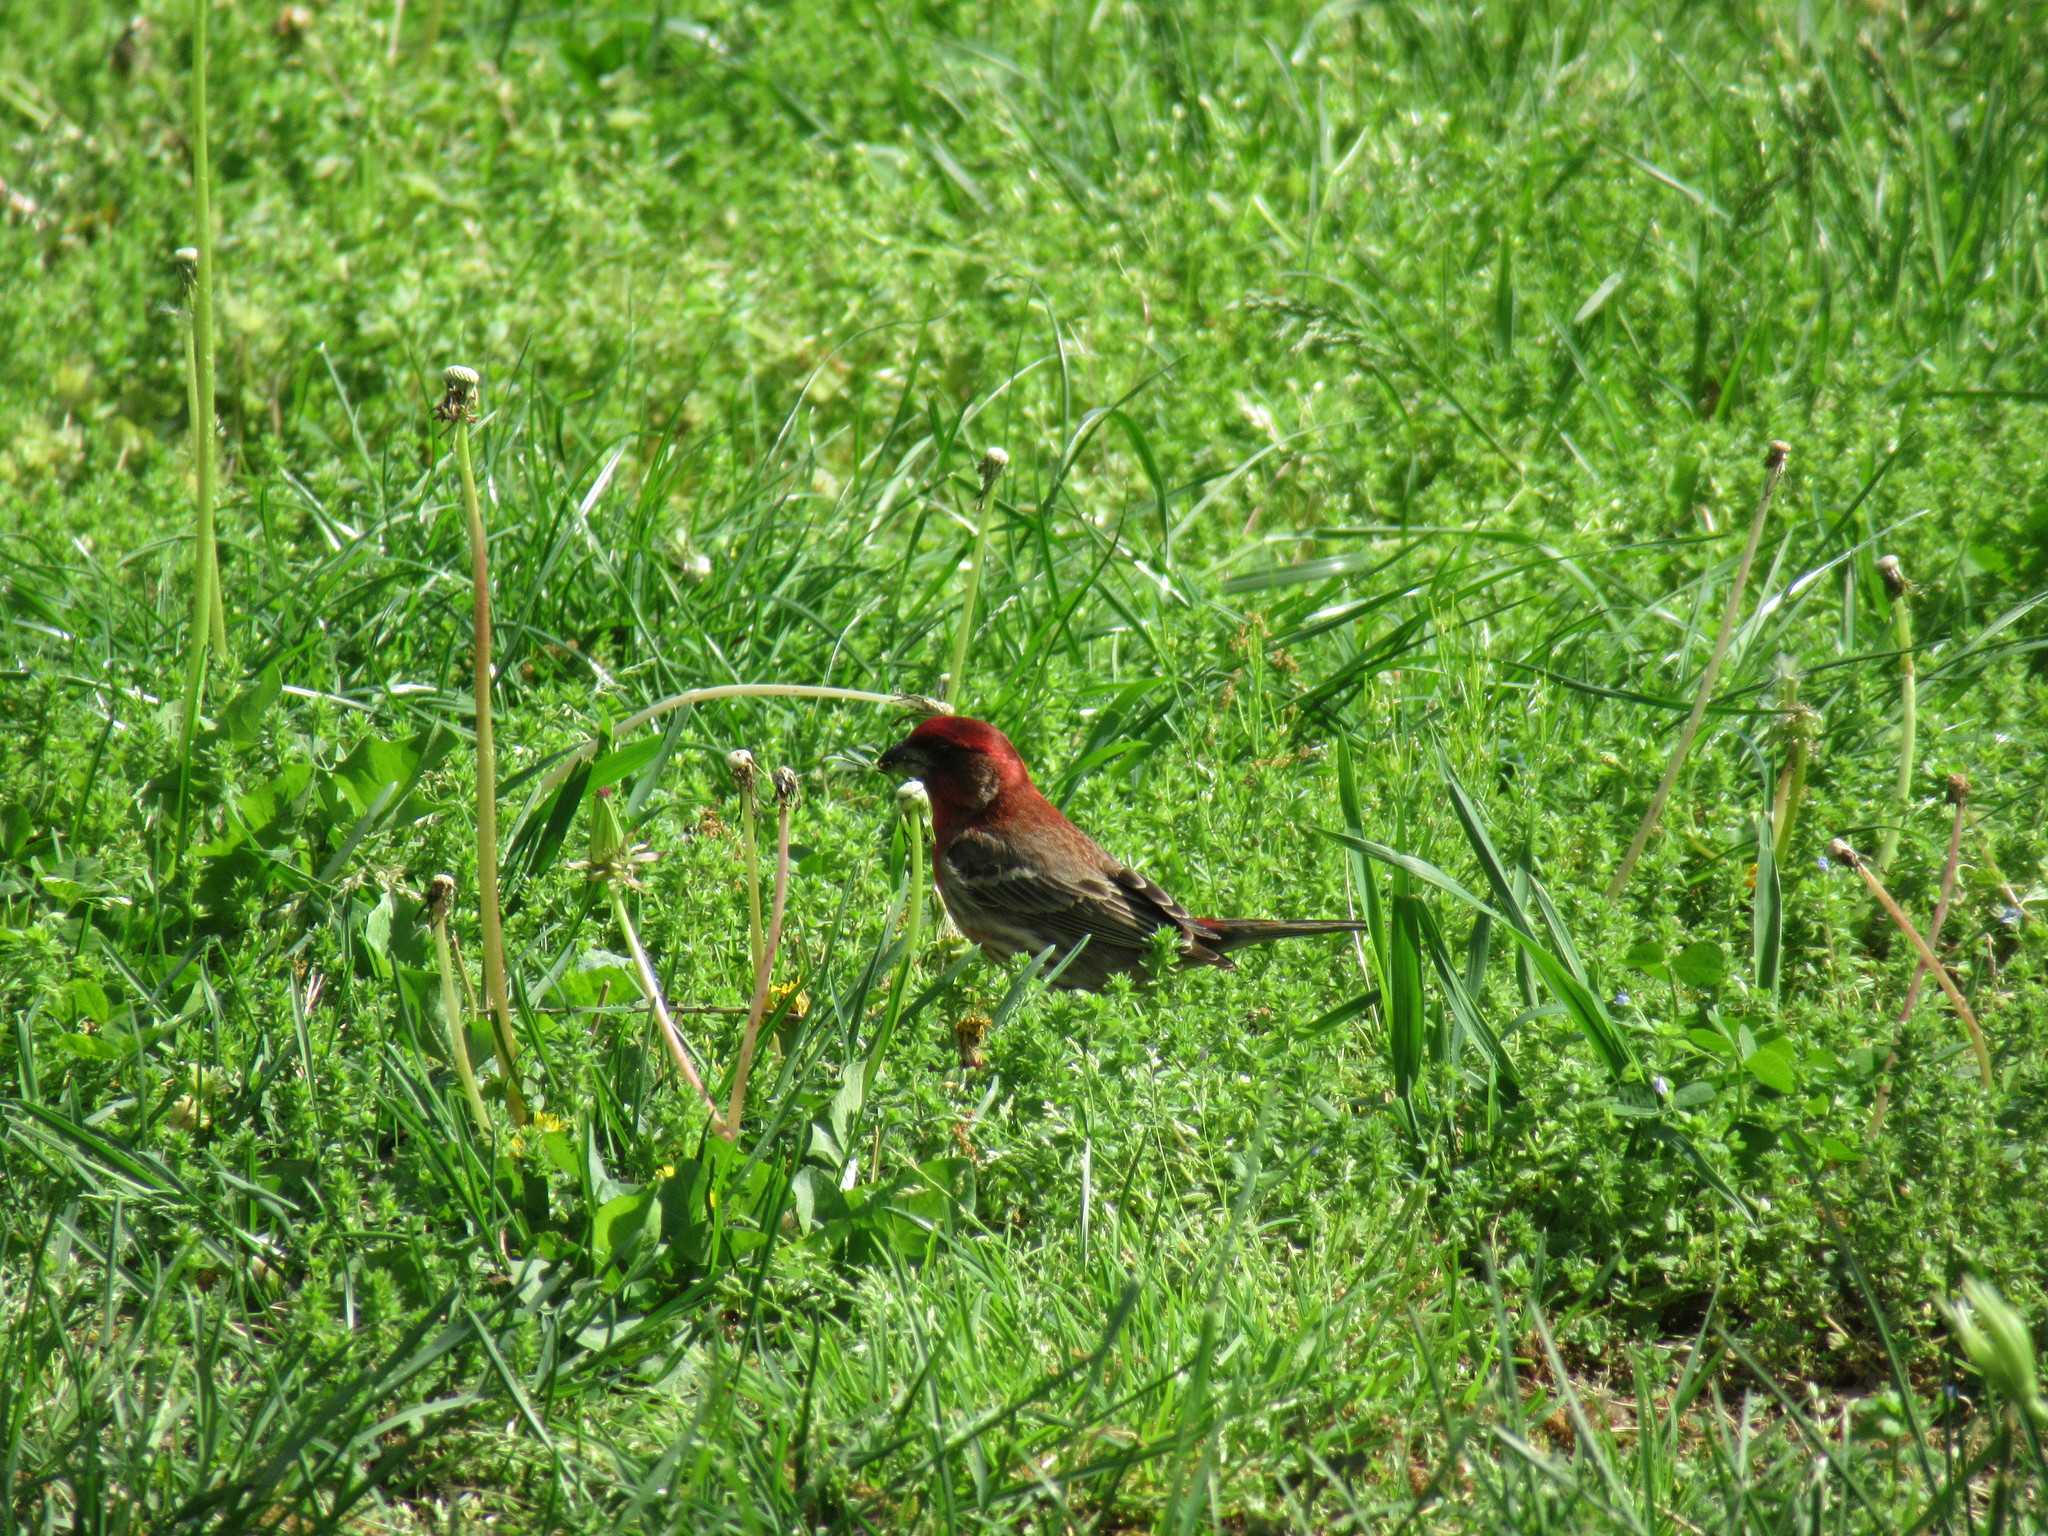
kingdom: Animalia
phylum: Chordata
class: Aves
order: Passeriformes
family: Fringillidae
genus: Haemorhous
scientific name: Haemorhous mexicanus
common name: House finch
